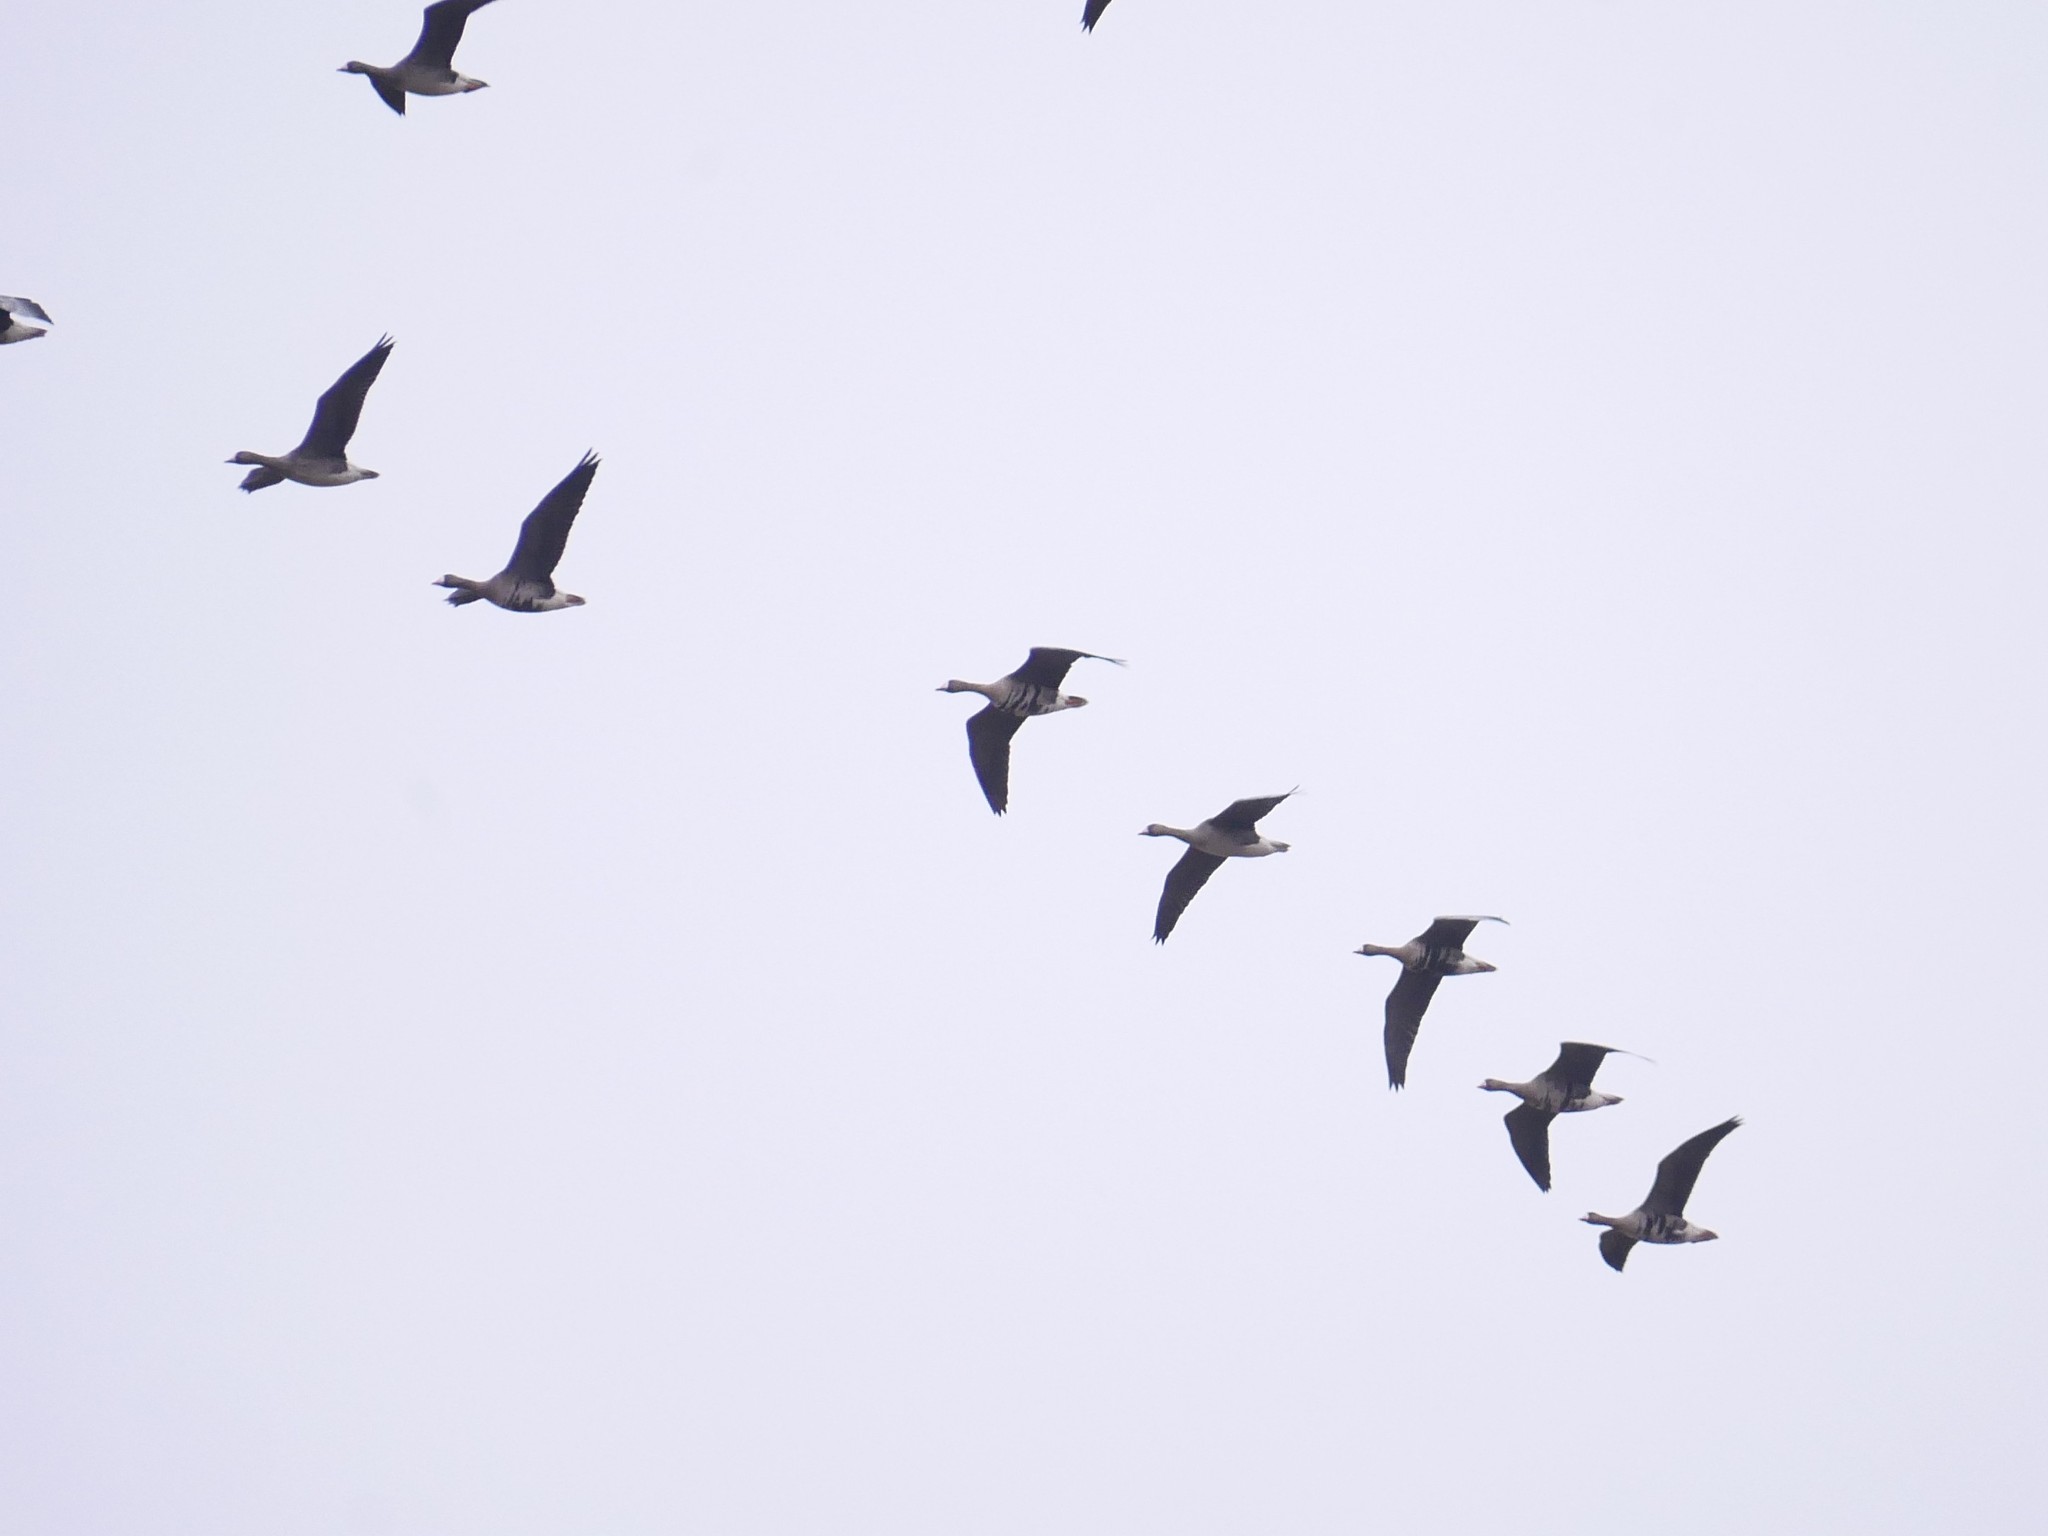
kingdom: Animalia
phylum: Chordata
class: Aves
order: Anseriformes
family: Anatidae
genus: Anser
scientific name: Anser albifrons
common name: Greater white-fronted goose
